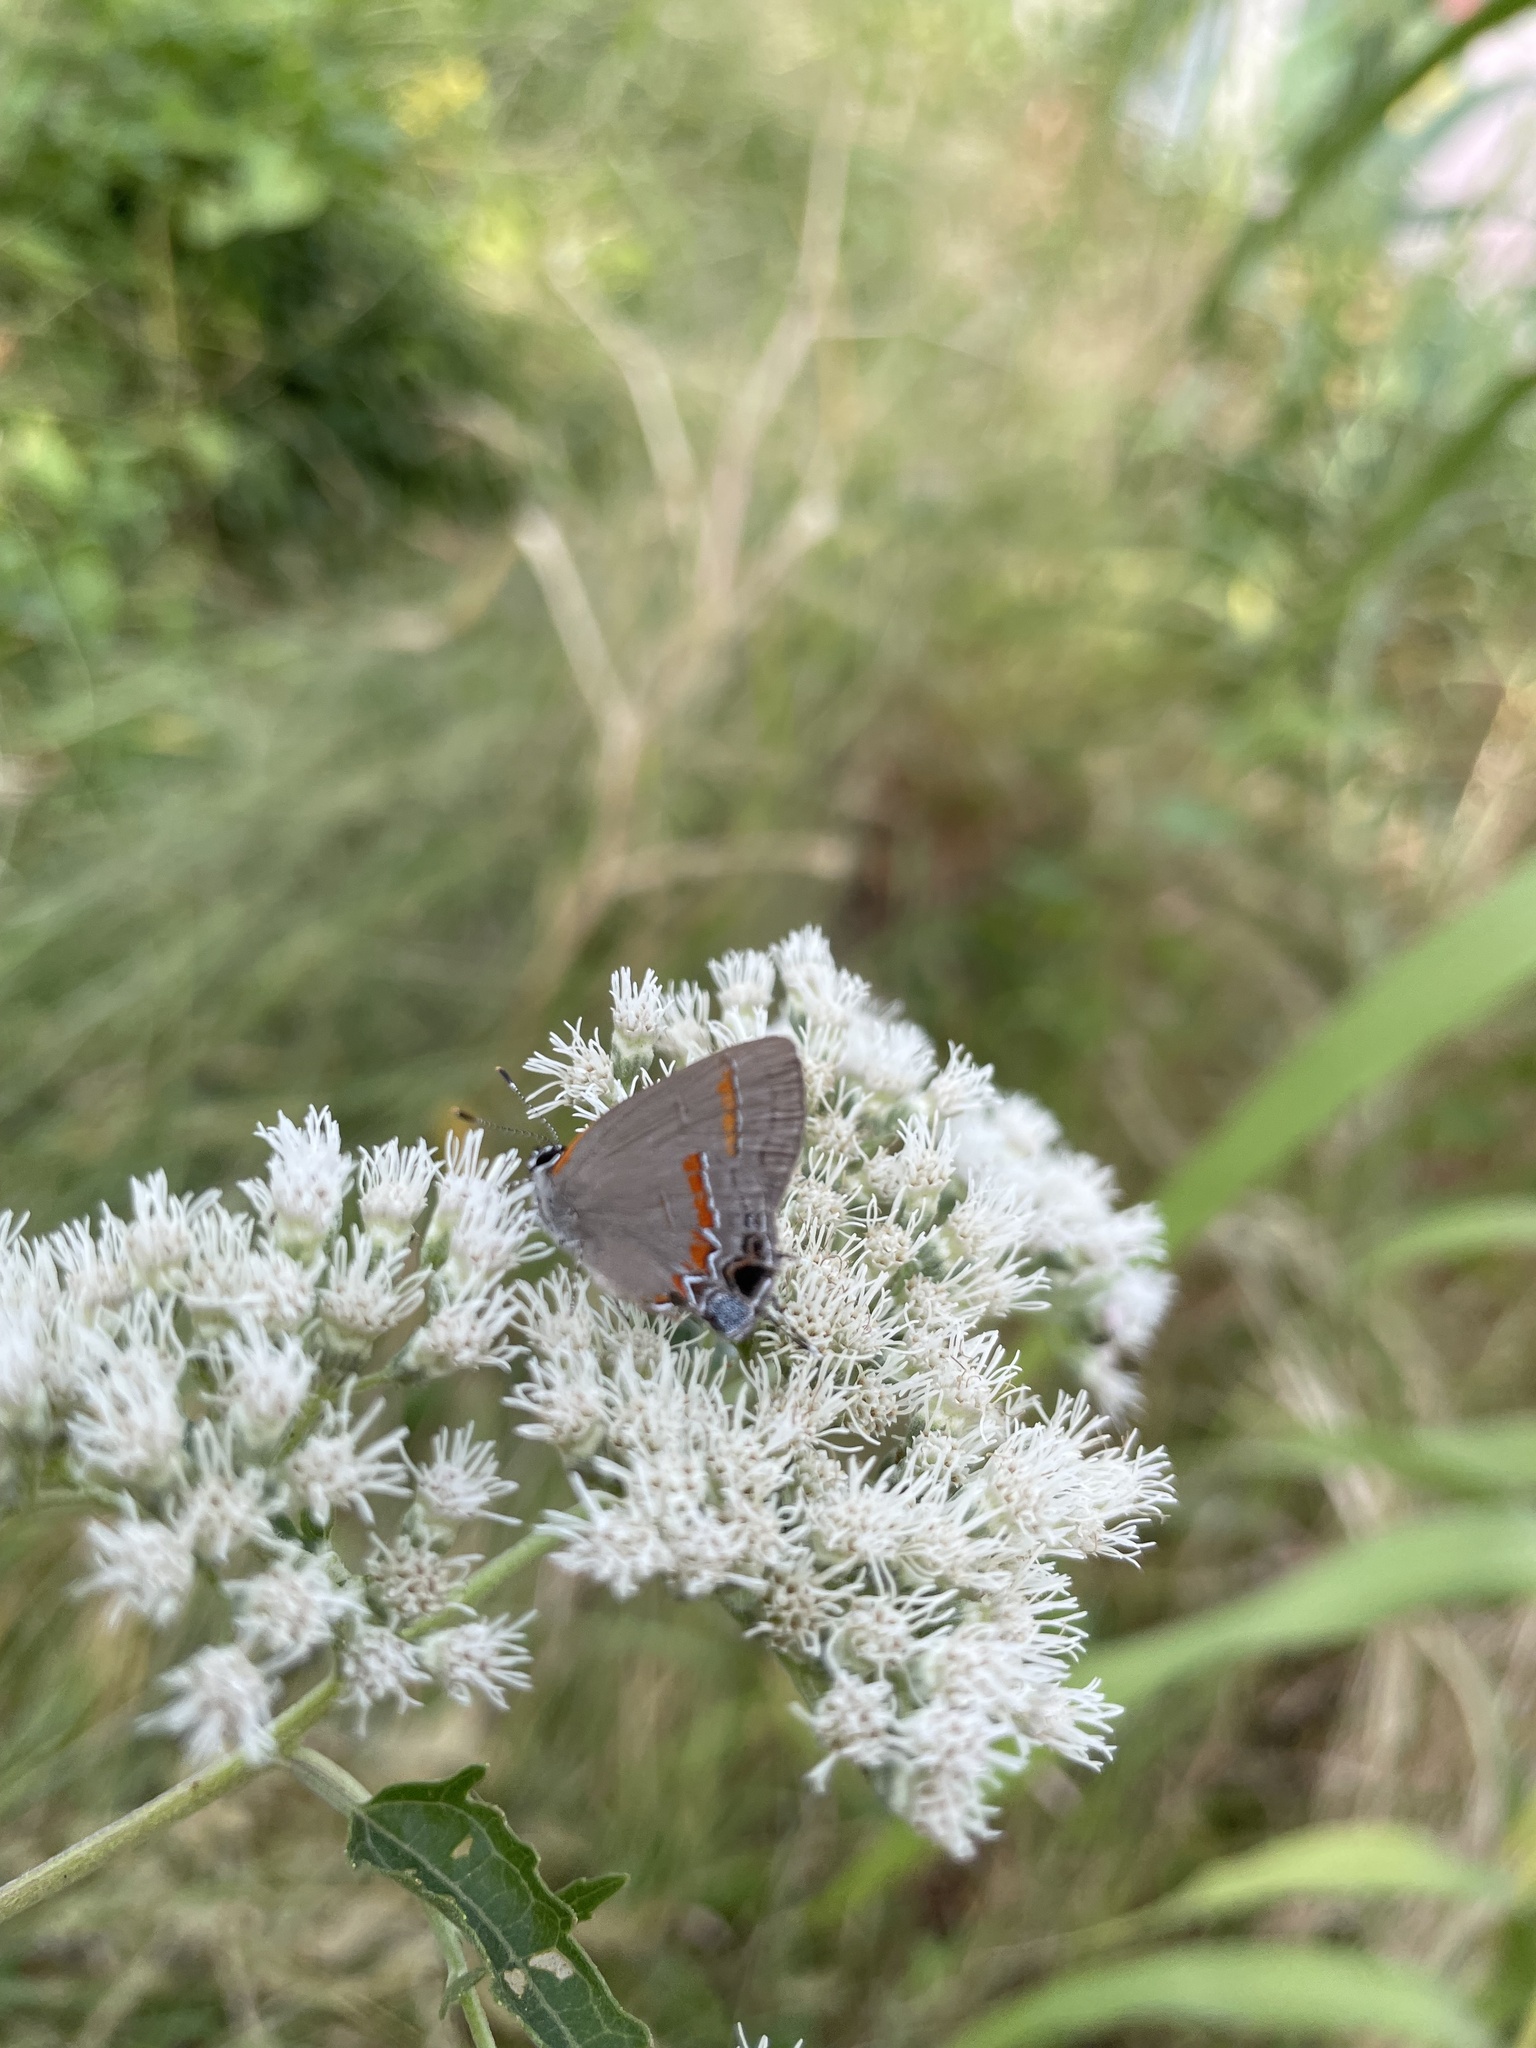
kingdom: Animalia
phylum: Arthropoda
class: Insecta
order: Lepidoptera
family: Lycaenidae
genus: Calycopis
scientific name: Calycopis cecrops
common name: Red-banded hairstreak
